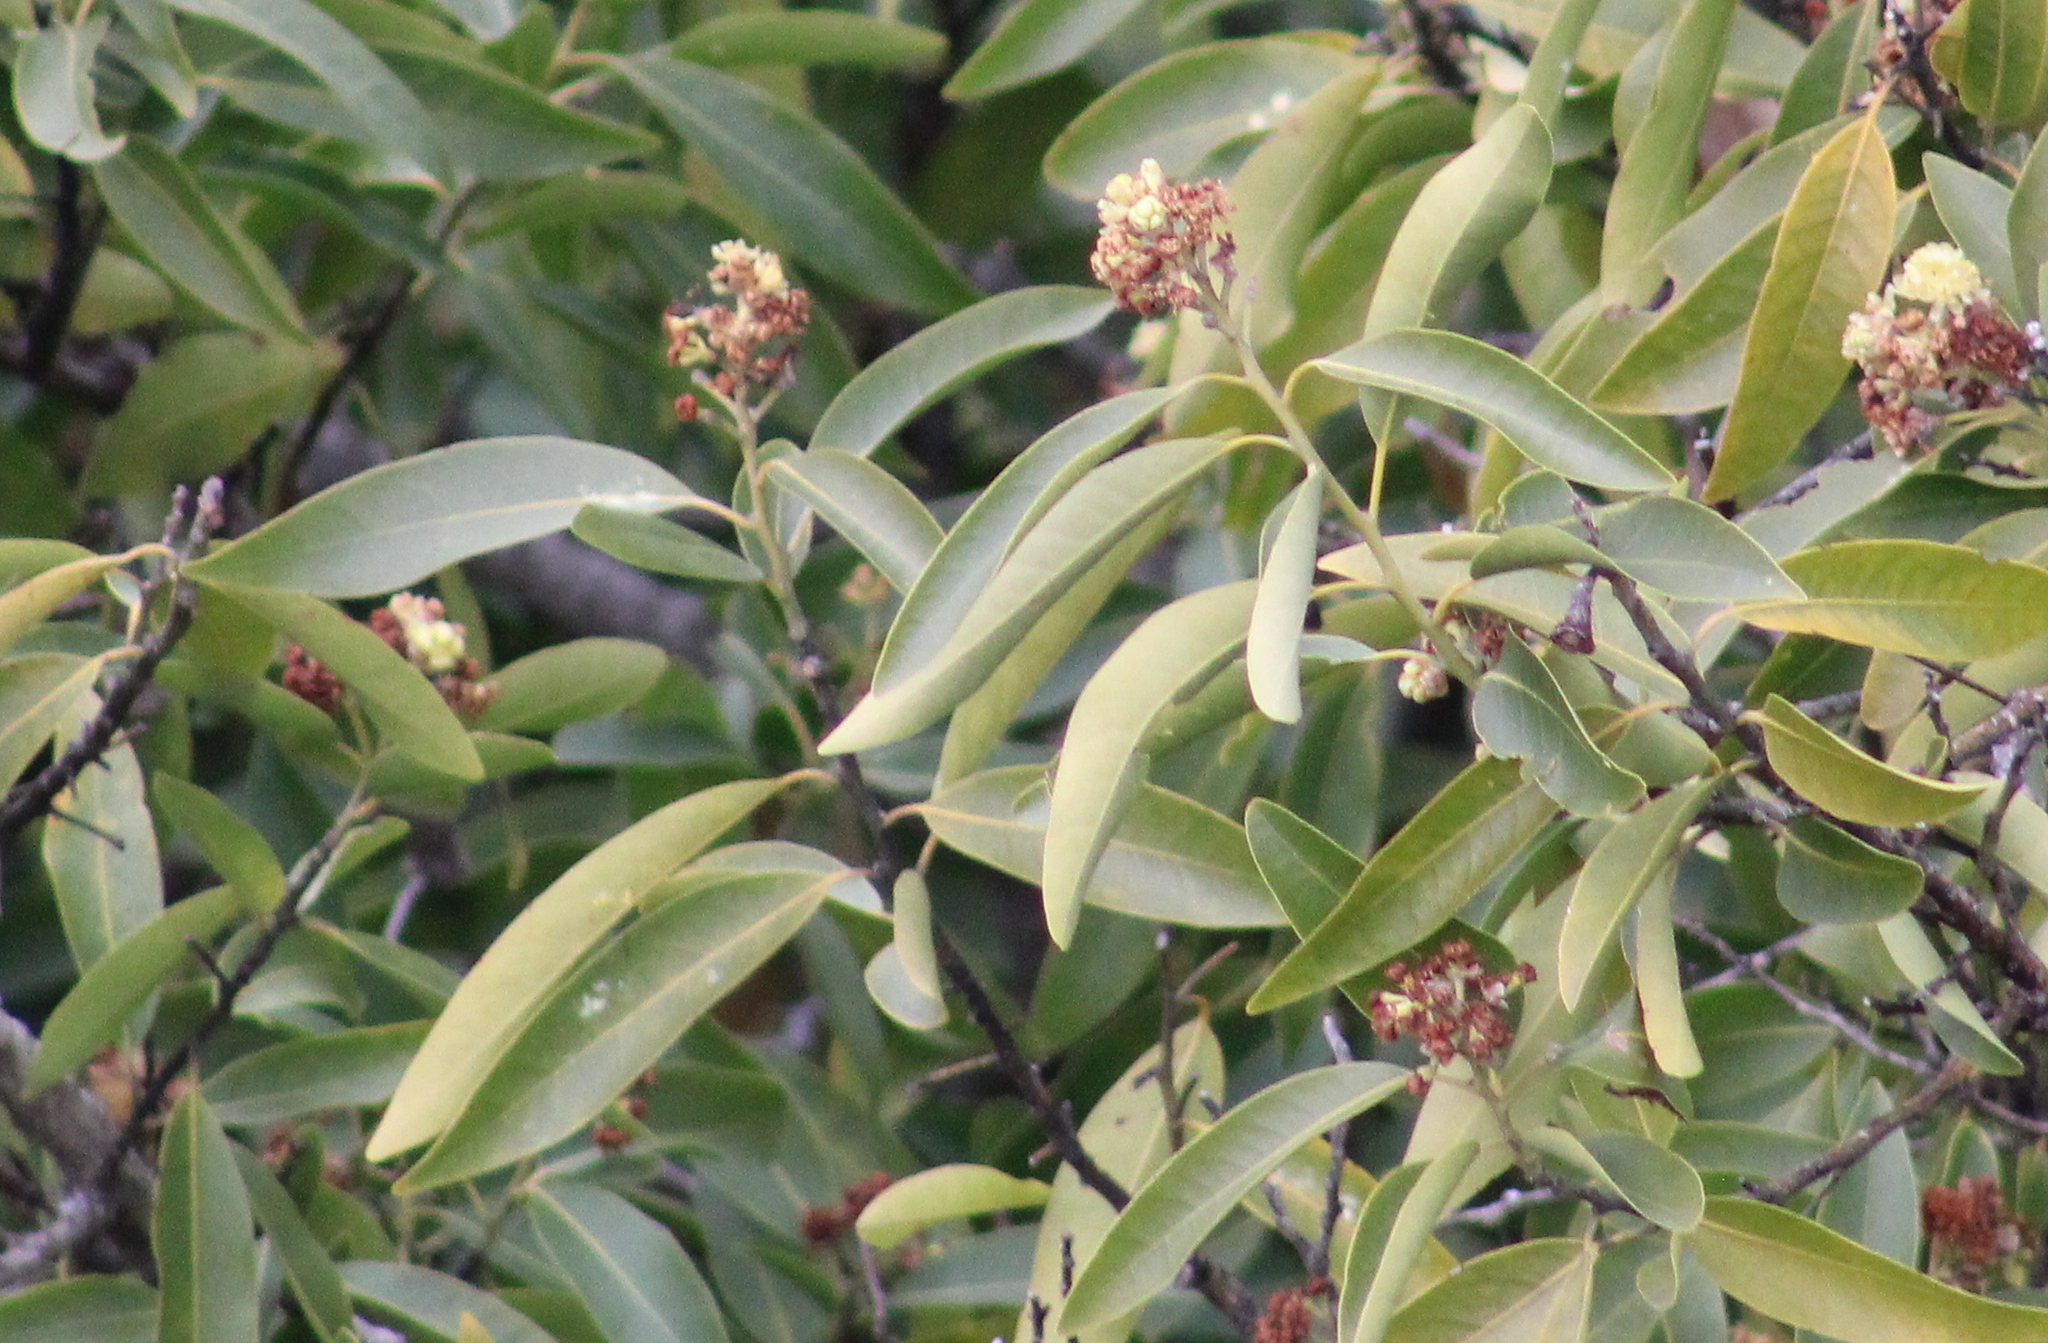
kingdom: Plantae
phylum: Tracheophyta
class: Magnoliopsida
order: Laurales
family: Lauraceae
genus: Umbellularia
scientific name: Umbellularia californica
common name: California bay
